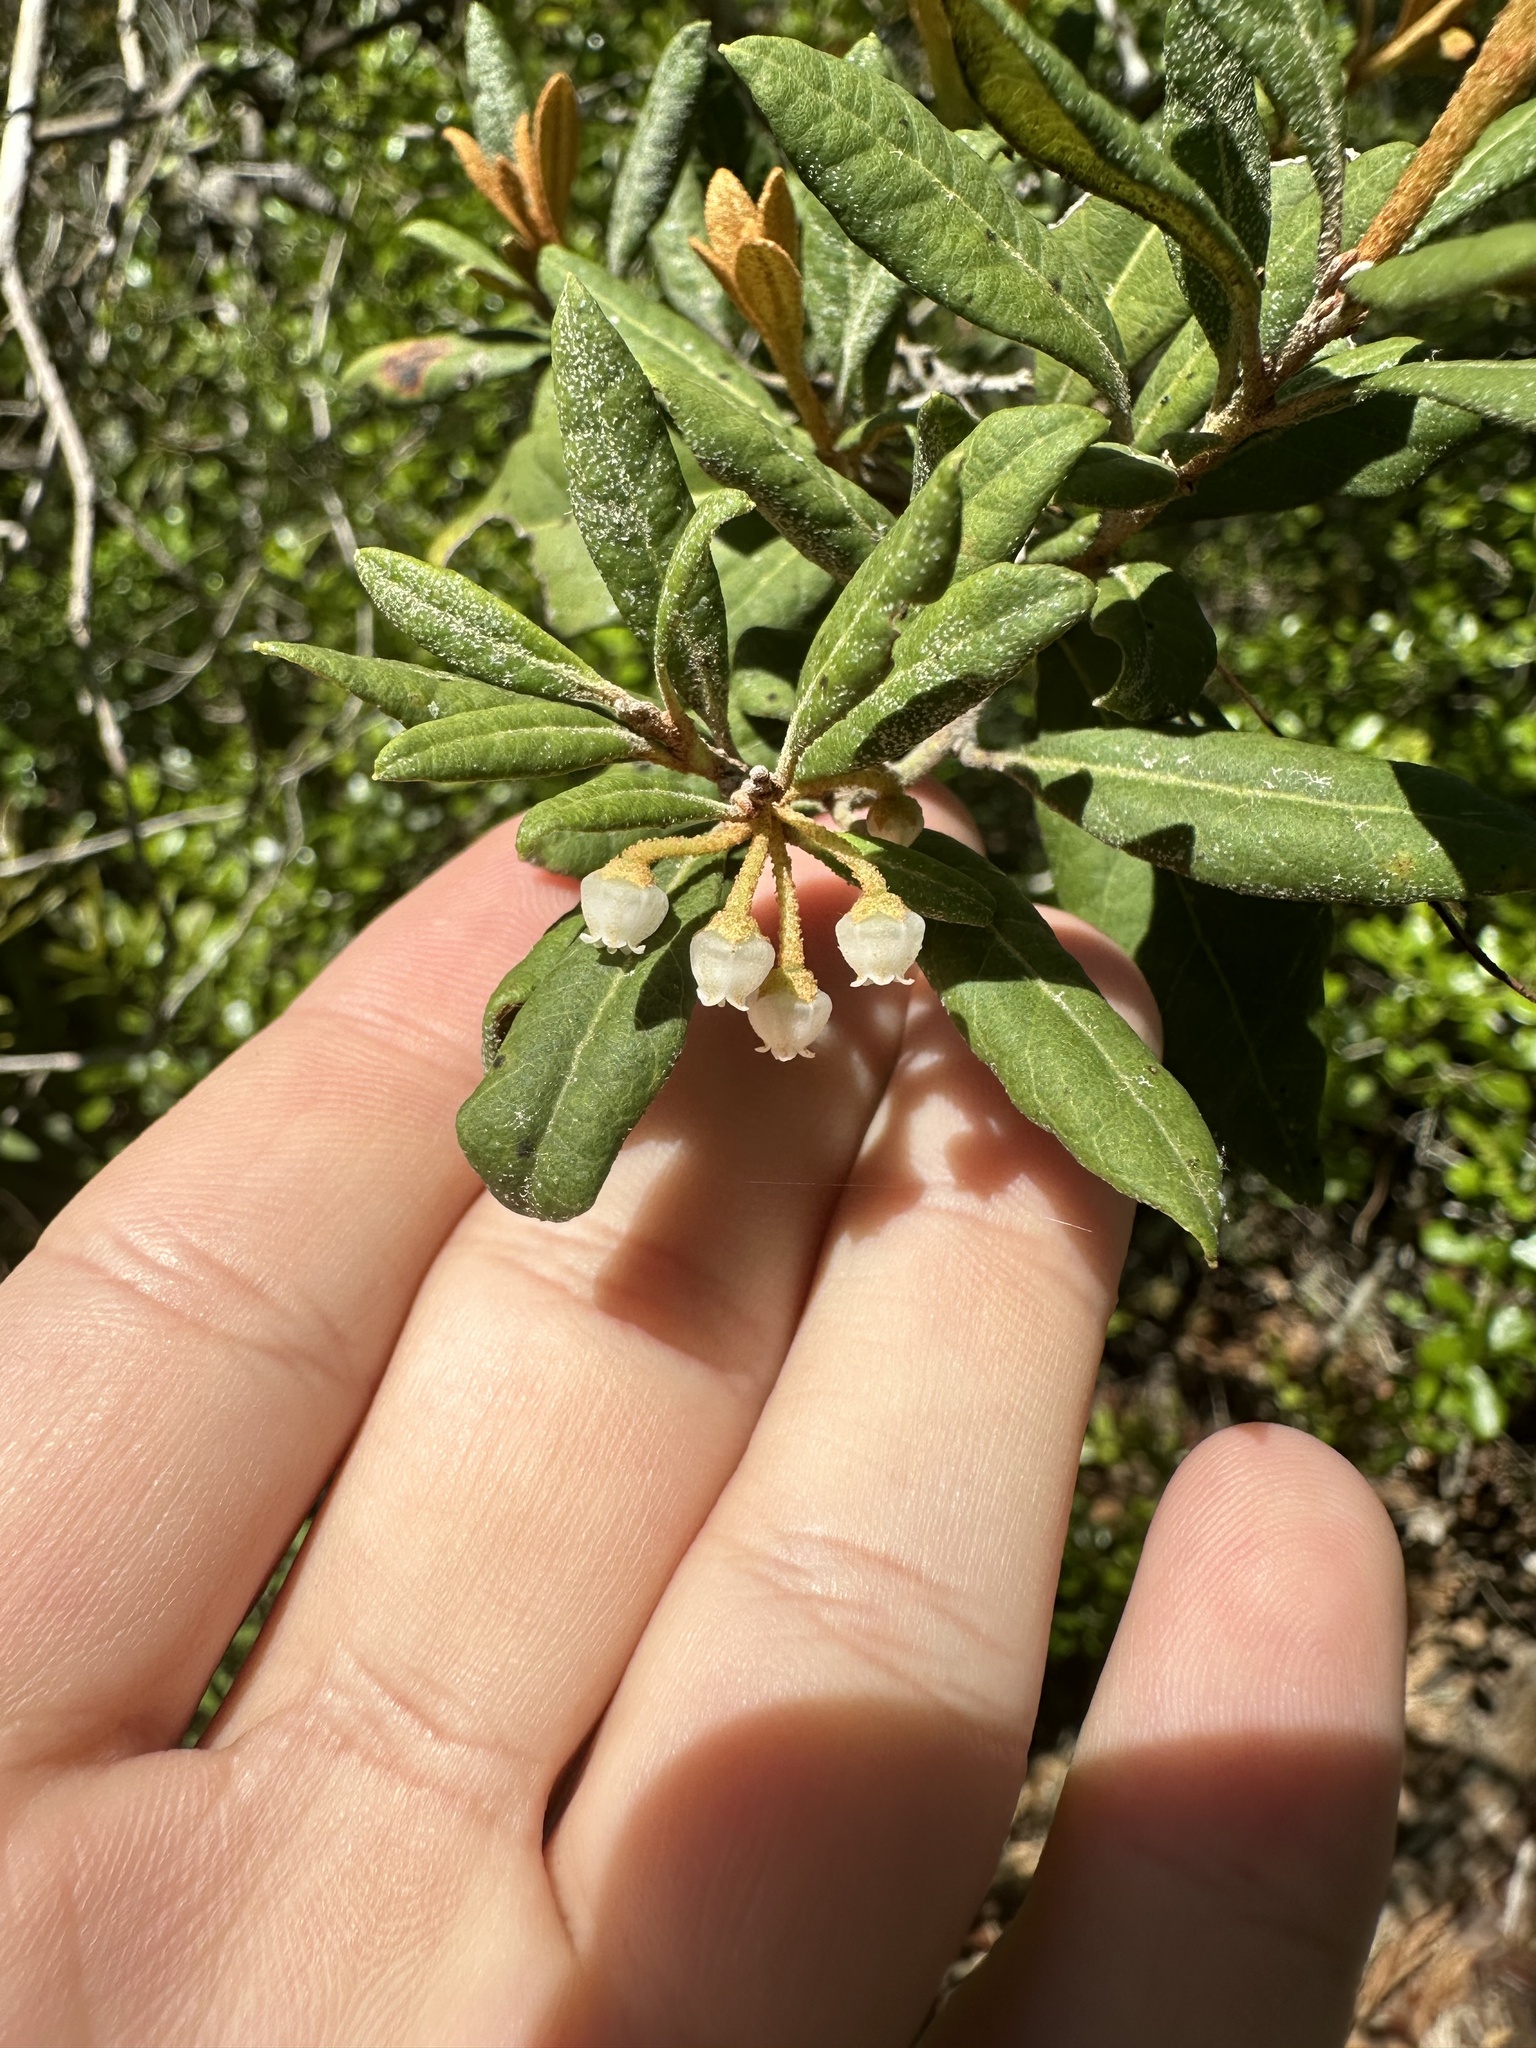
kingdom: Plantae
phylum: Tracheophyta
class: Magnoliopsida
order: Ericales
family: Ericaceae
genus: Lyonia
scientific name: Lyonia ferruginea
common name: Rusty lyonia
